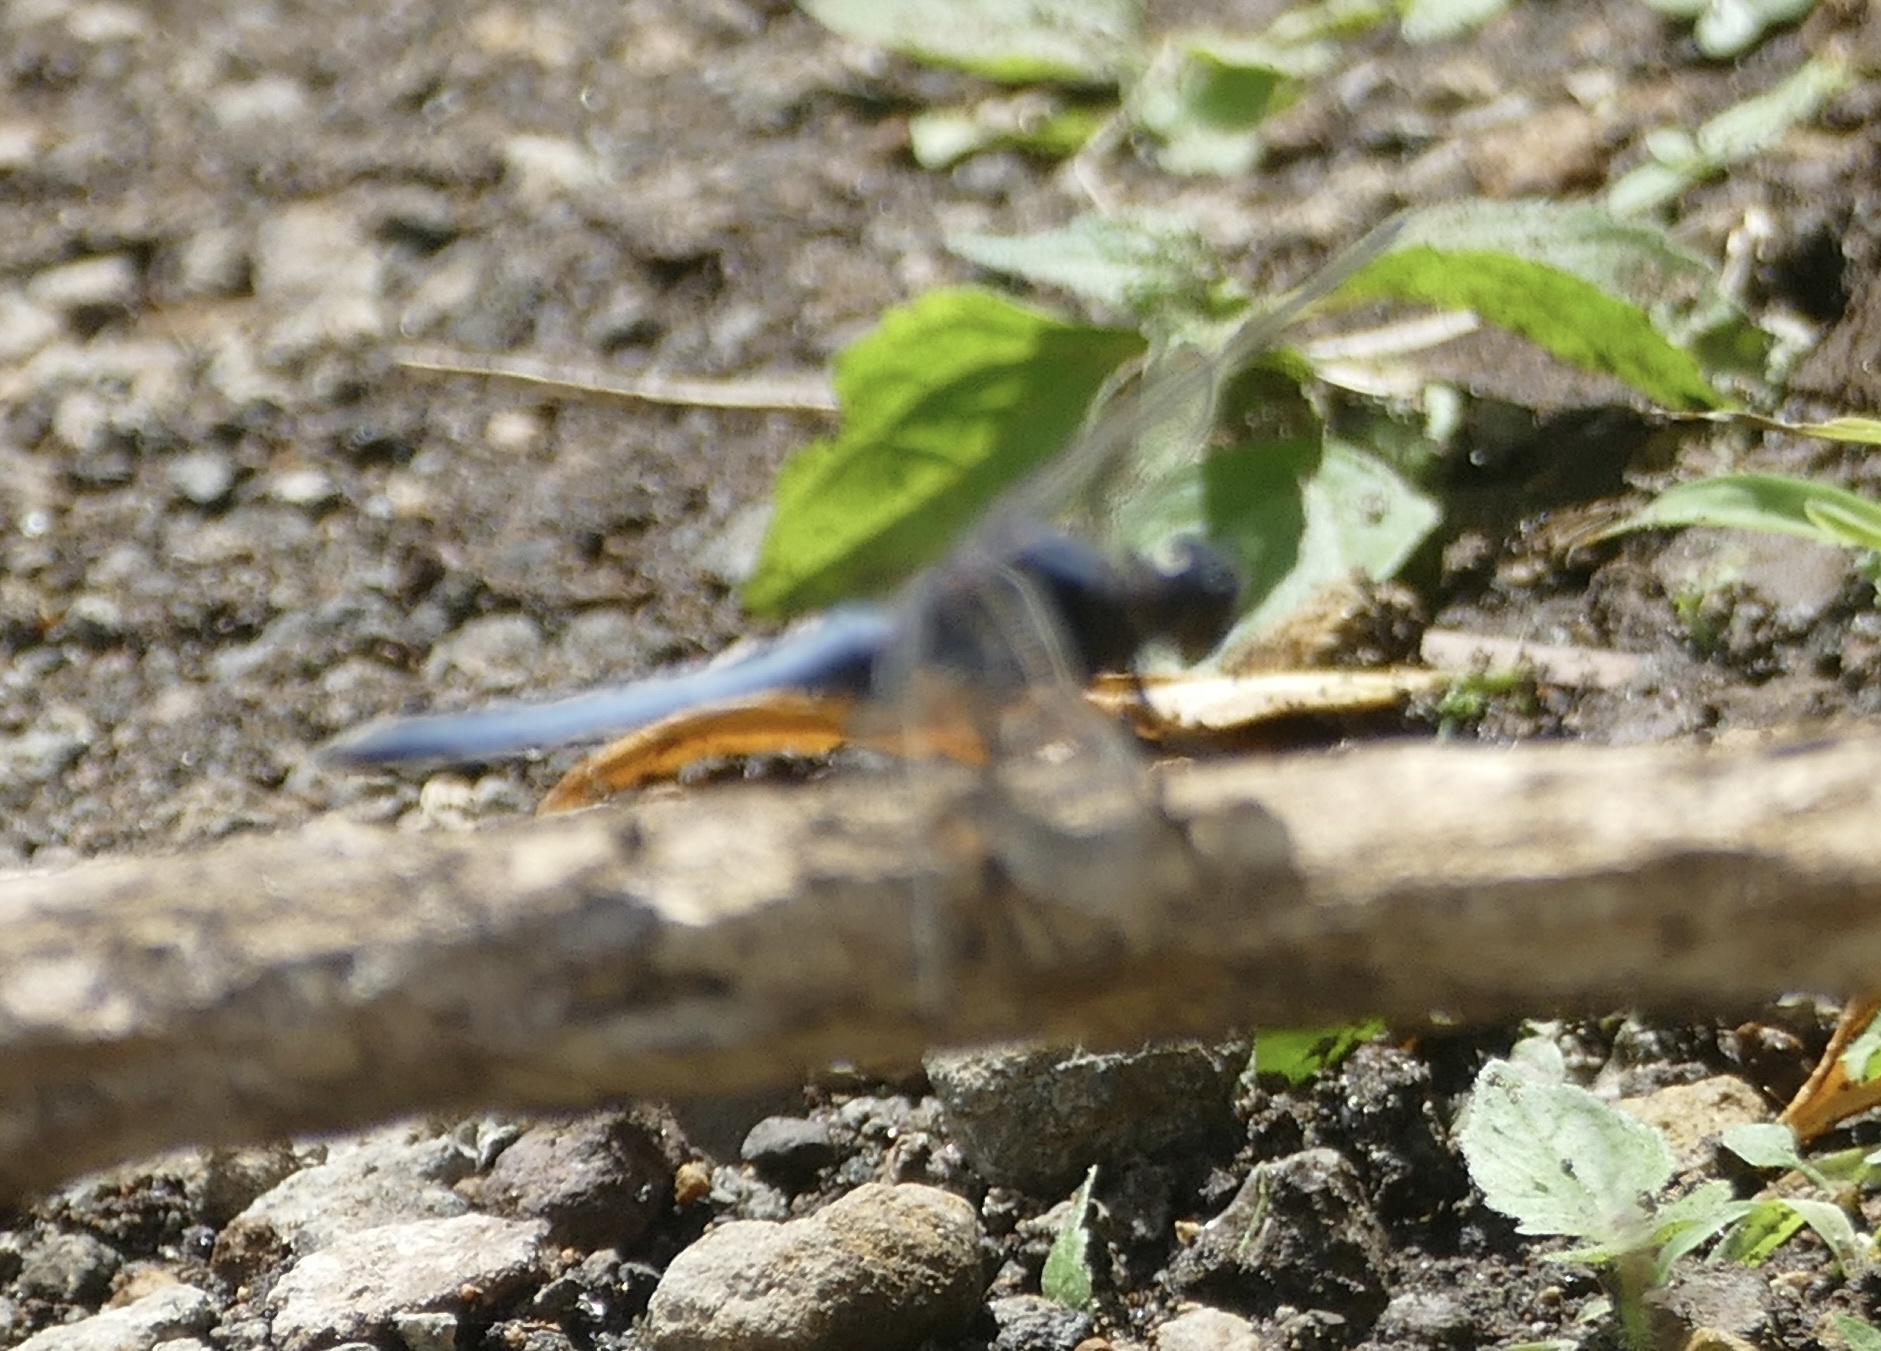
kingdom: Animalia
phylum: Arthropoda
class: Insecta
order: Odonata
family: Libellulidae
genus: Orthetrum
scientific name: Orthetrum glaucum
